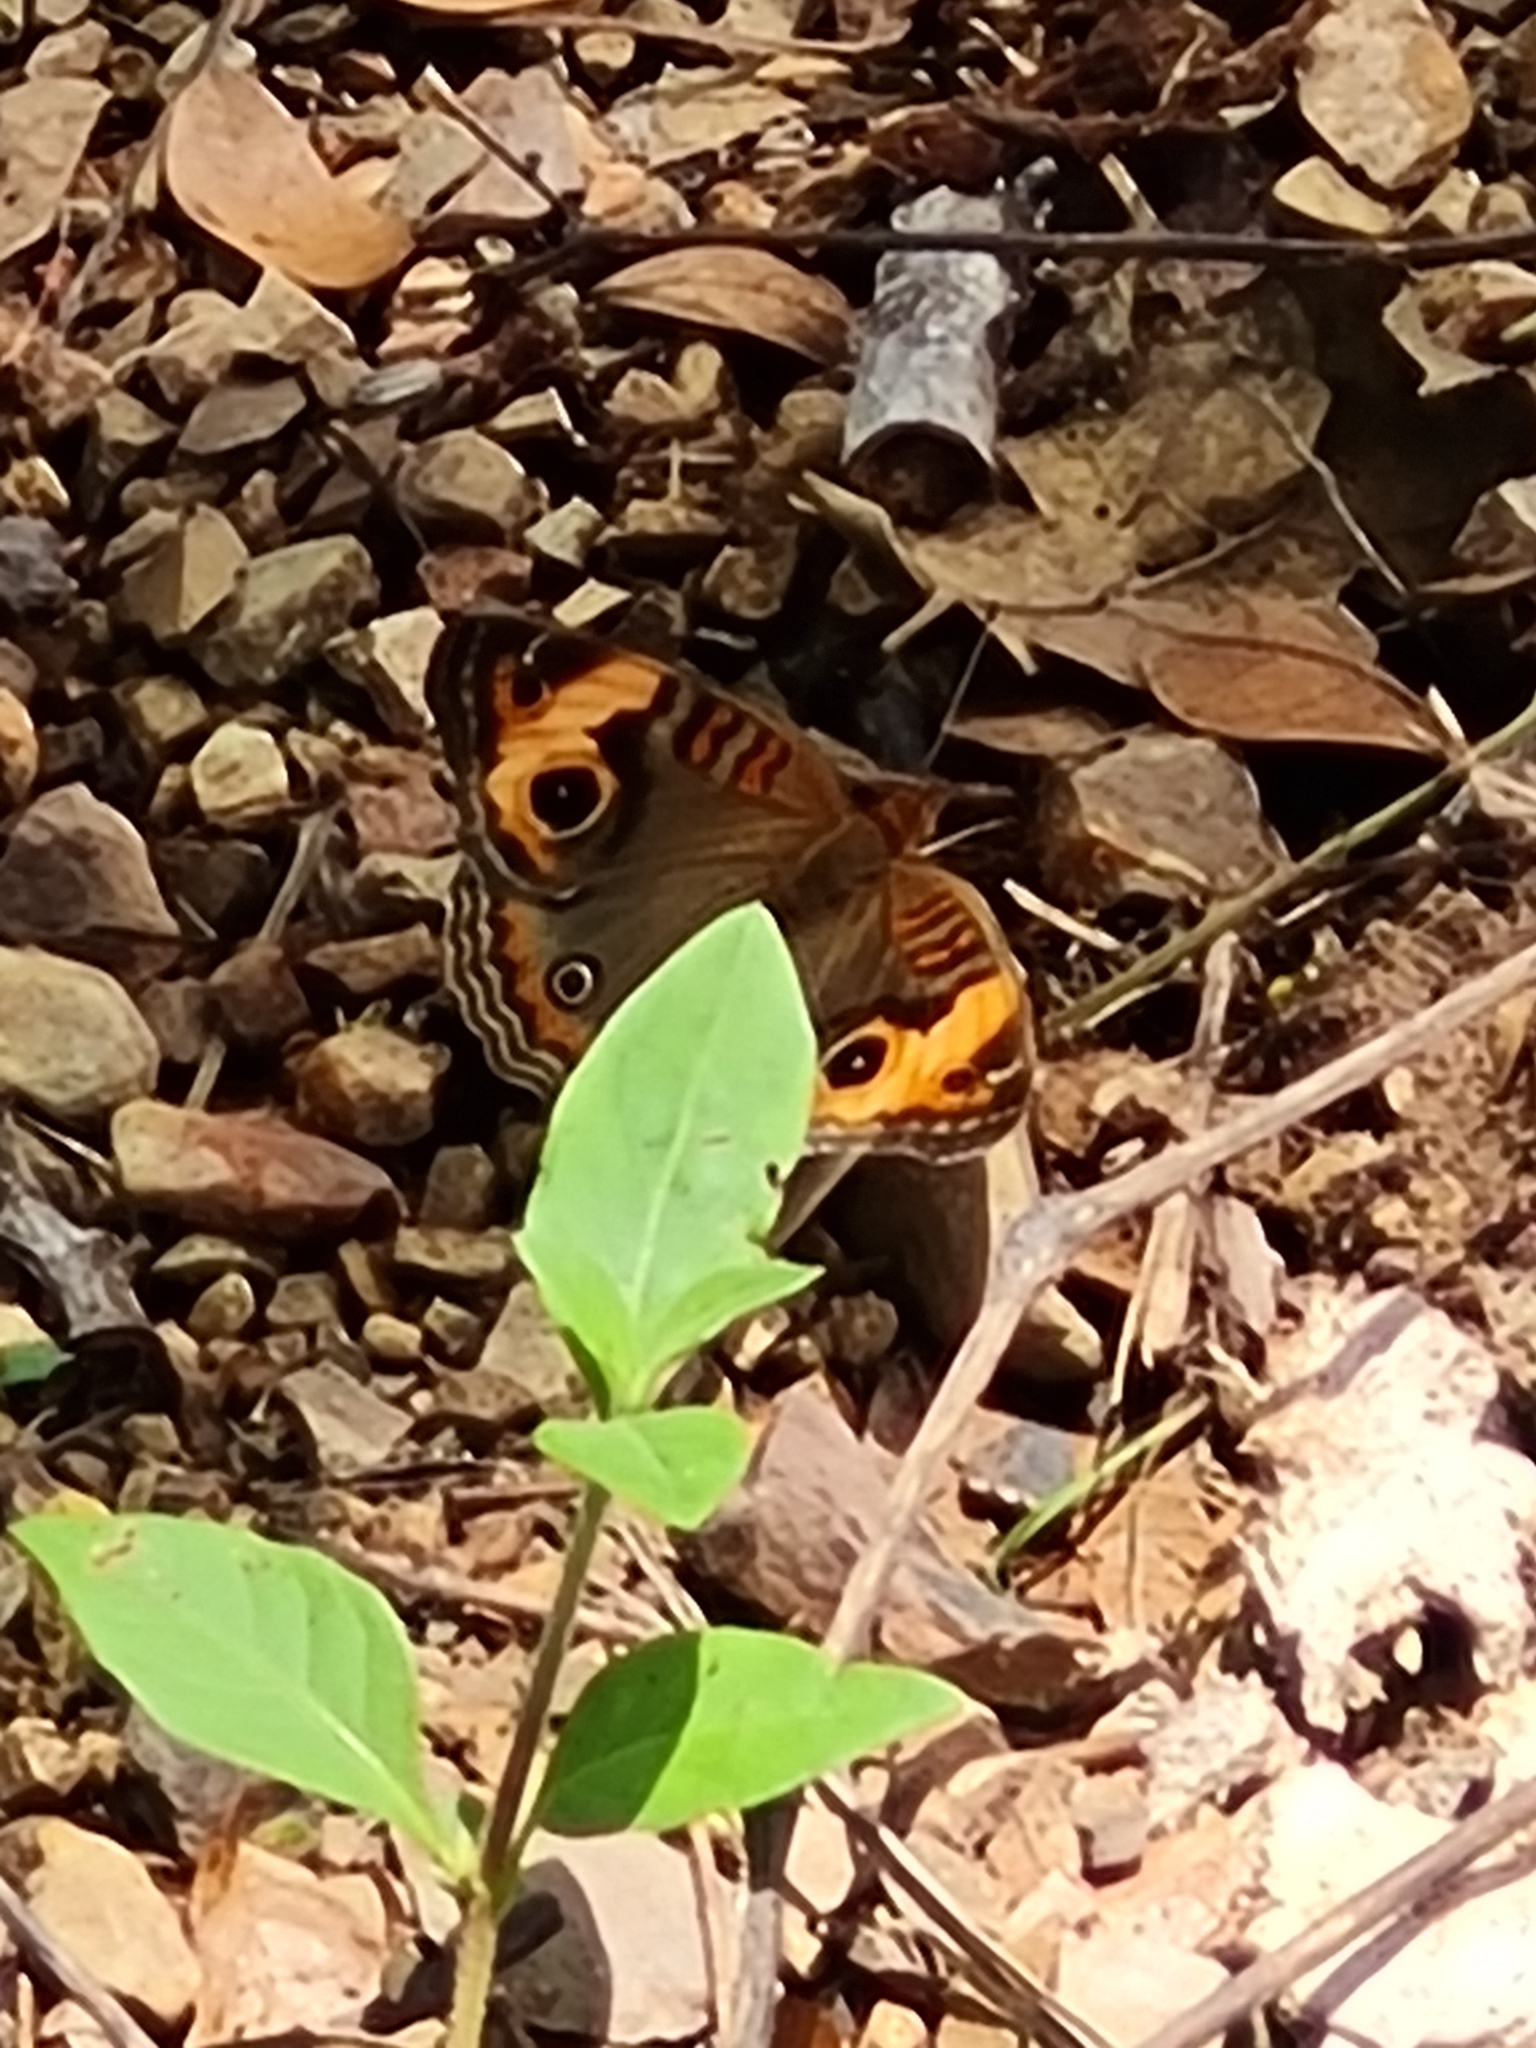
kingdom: Animalia
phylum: Arthropoda
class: Insecta
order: Lepidoptera
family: Nymphalidae
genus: Junonia
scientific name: Junonia lavinia
